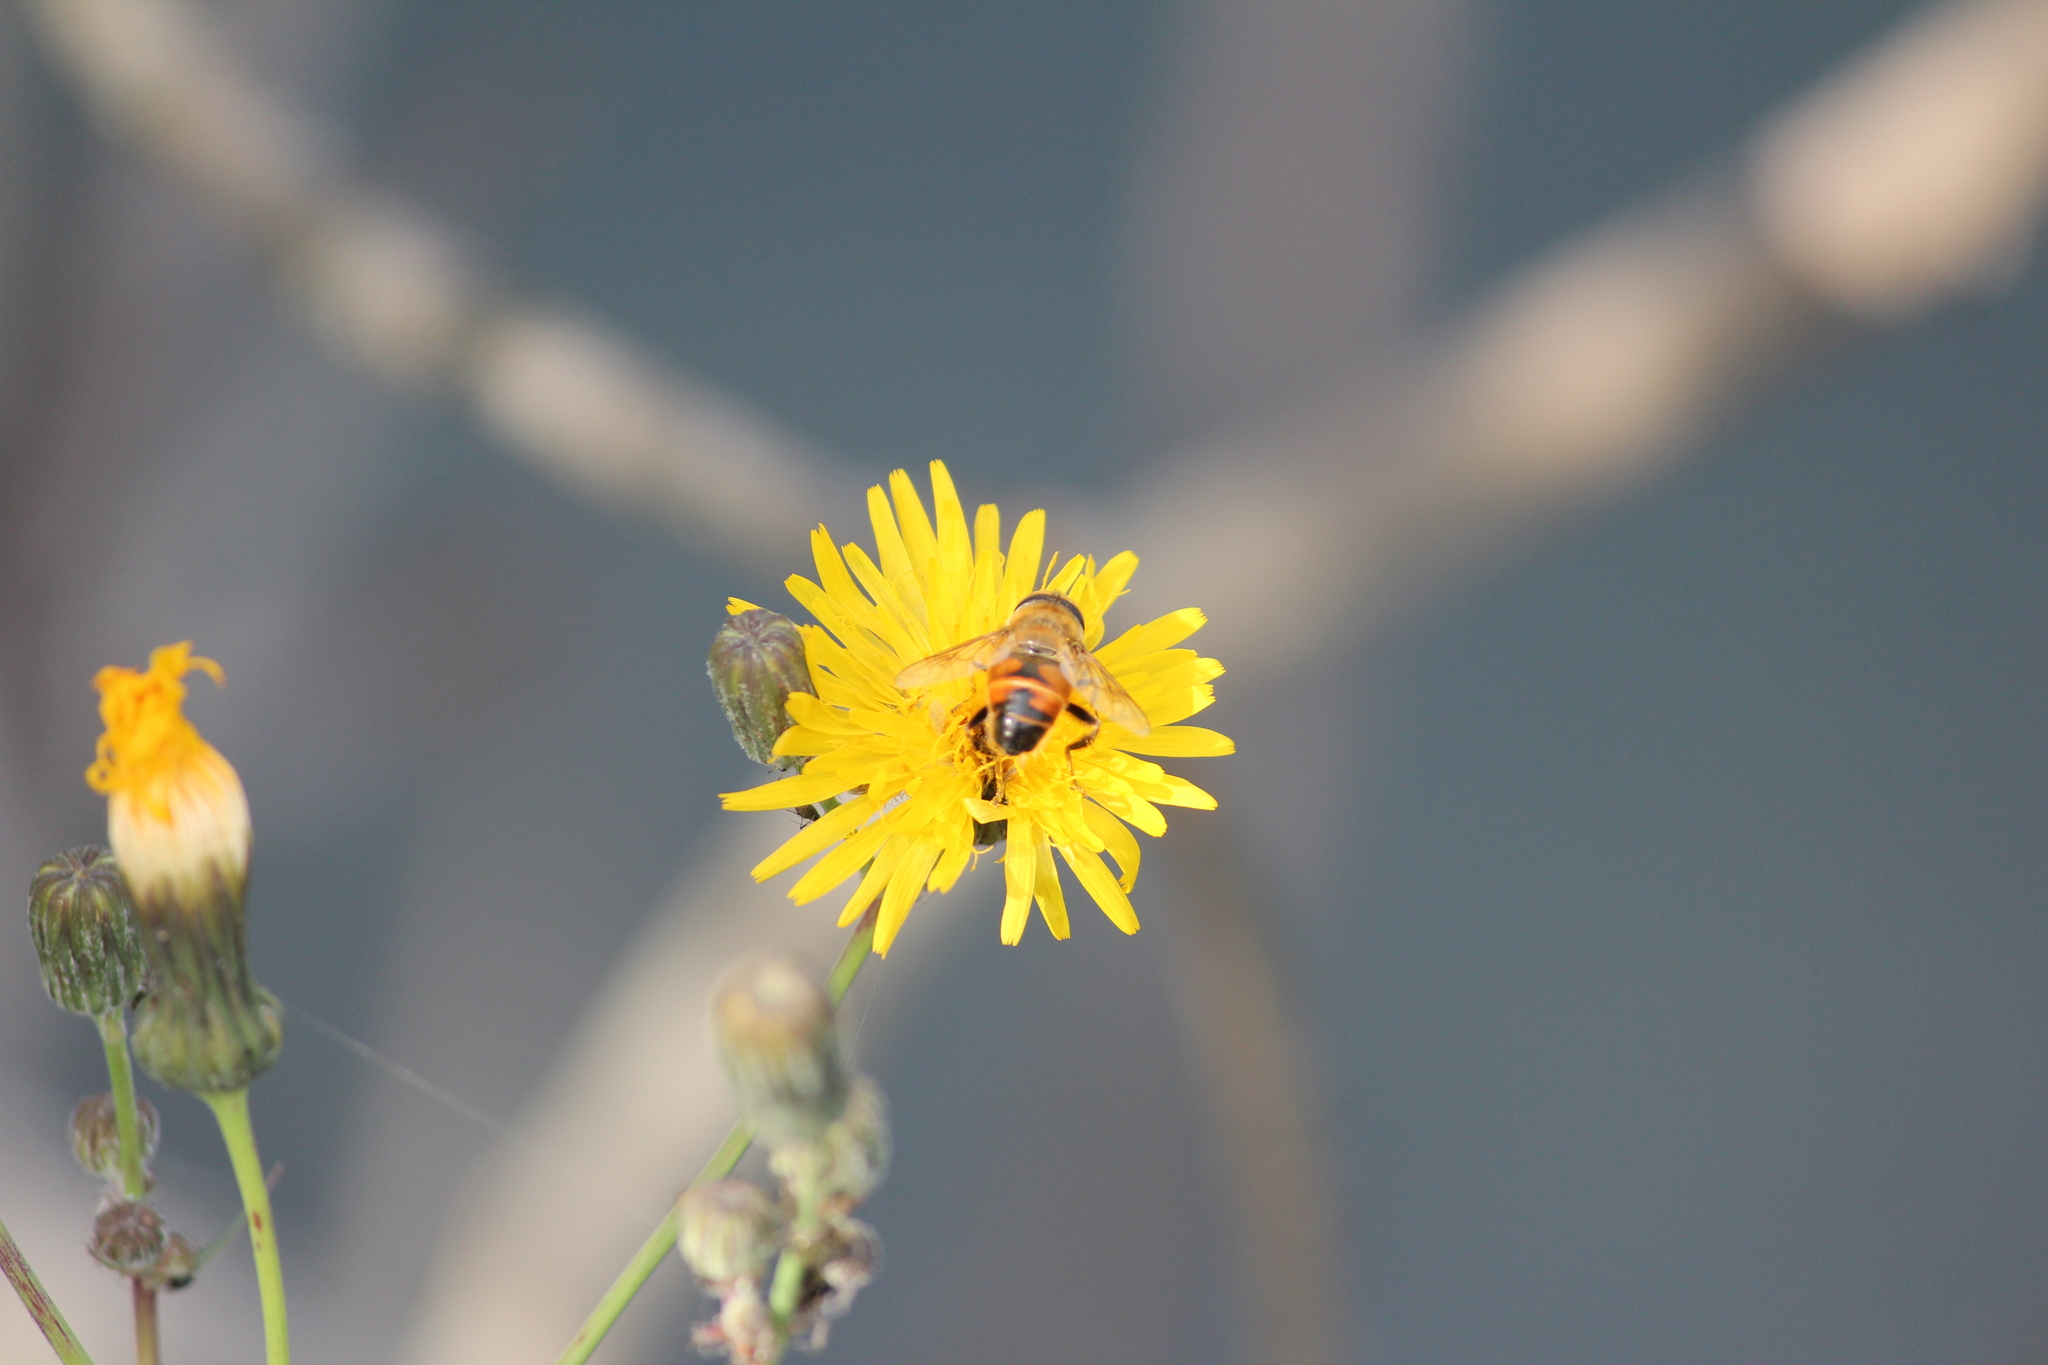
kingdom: Animalia
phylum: Arthropoda
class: Insecta
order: Diptera
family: Syrphidae
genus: Eristalis
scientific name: Eristalis tenax
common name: Drone fly
